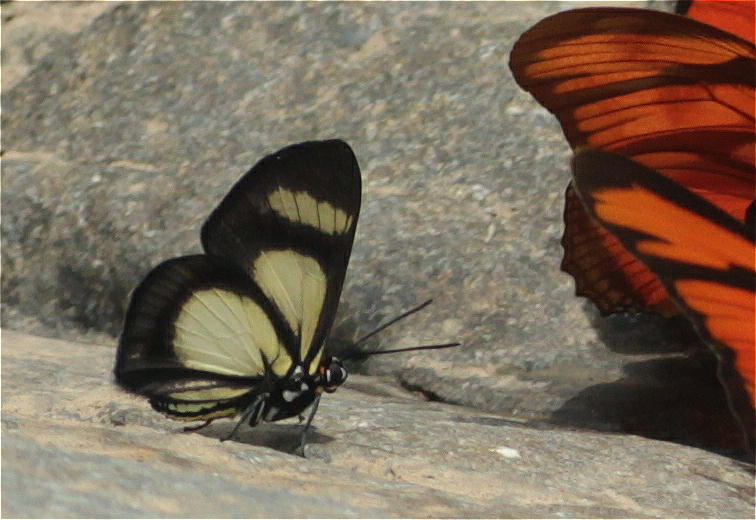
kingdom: Animalia
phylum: Arthropoda
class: Insecta
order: Lepidoptera
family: Riodinidae
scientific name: Riodinidae
